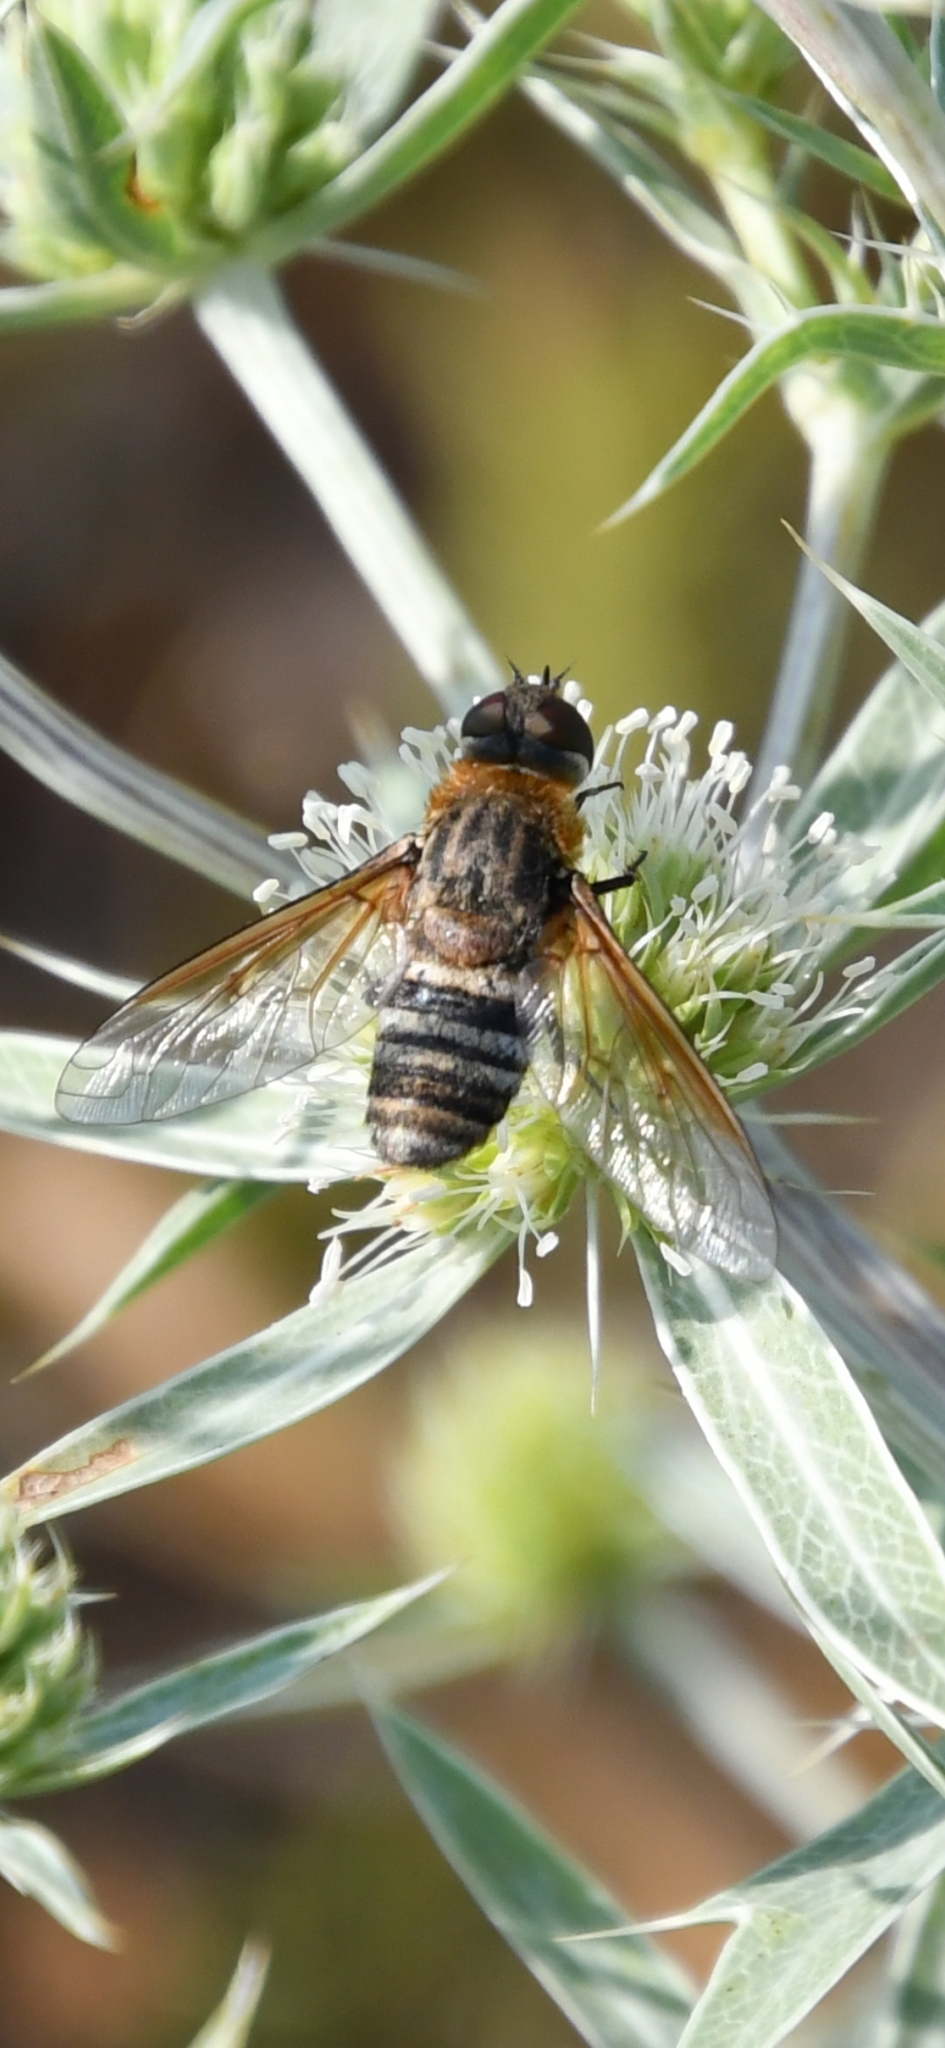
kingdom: Animalia
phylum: Arthropoda
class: Insecta
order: Diptera
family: Bombyliidae
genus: Defilippia
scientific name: Defilippia minos
